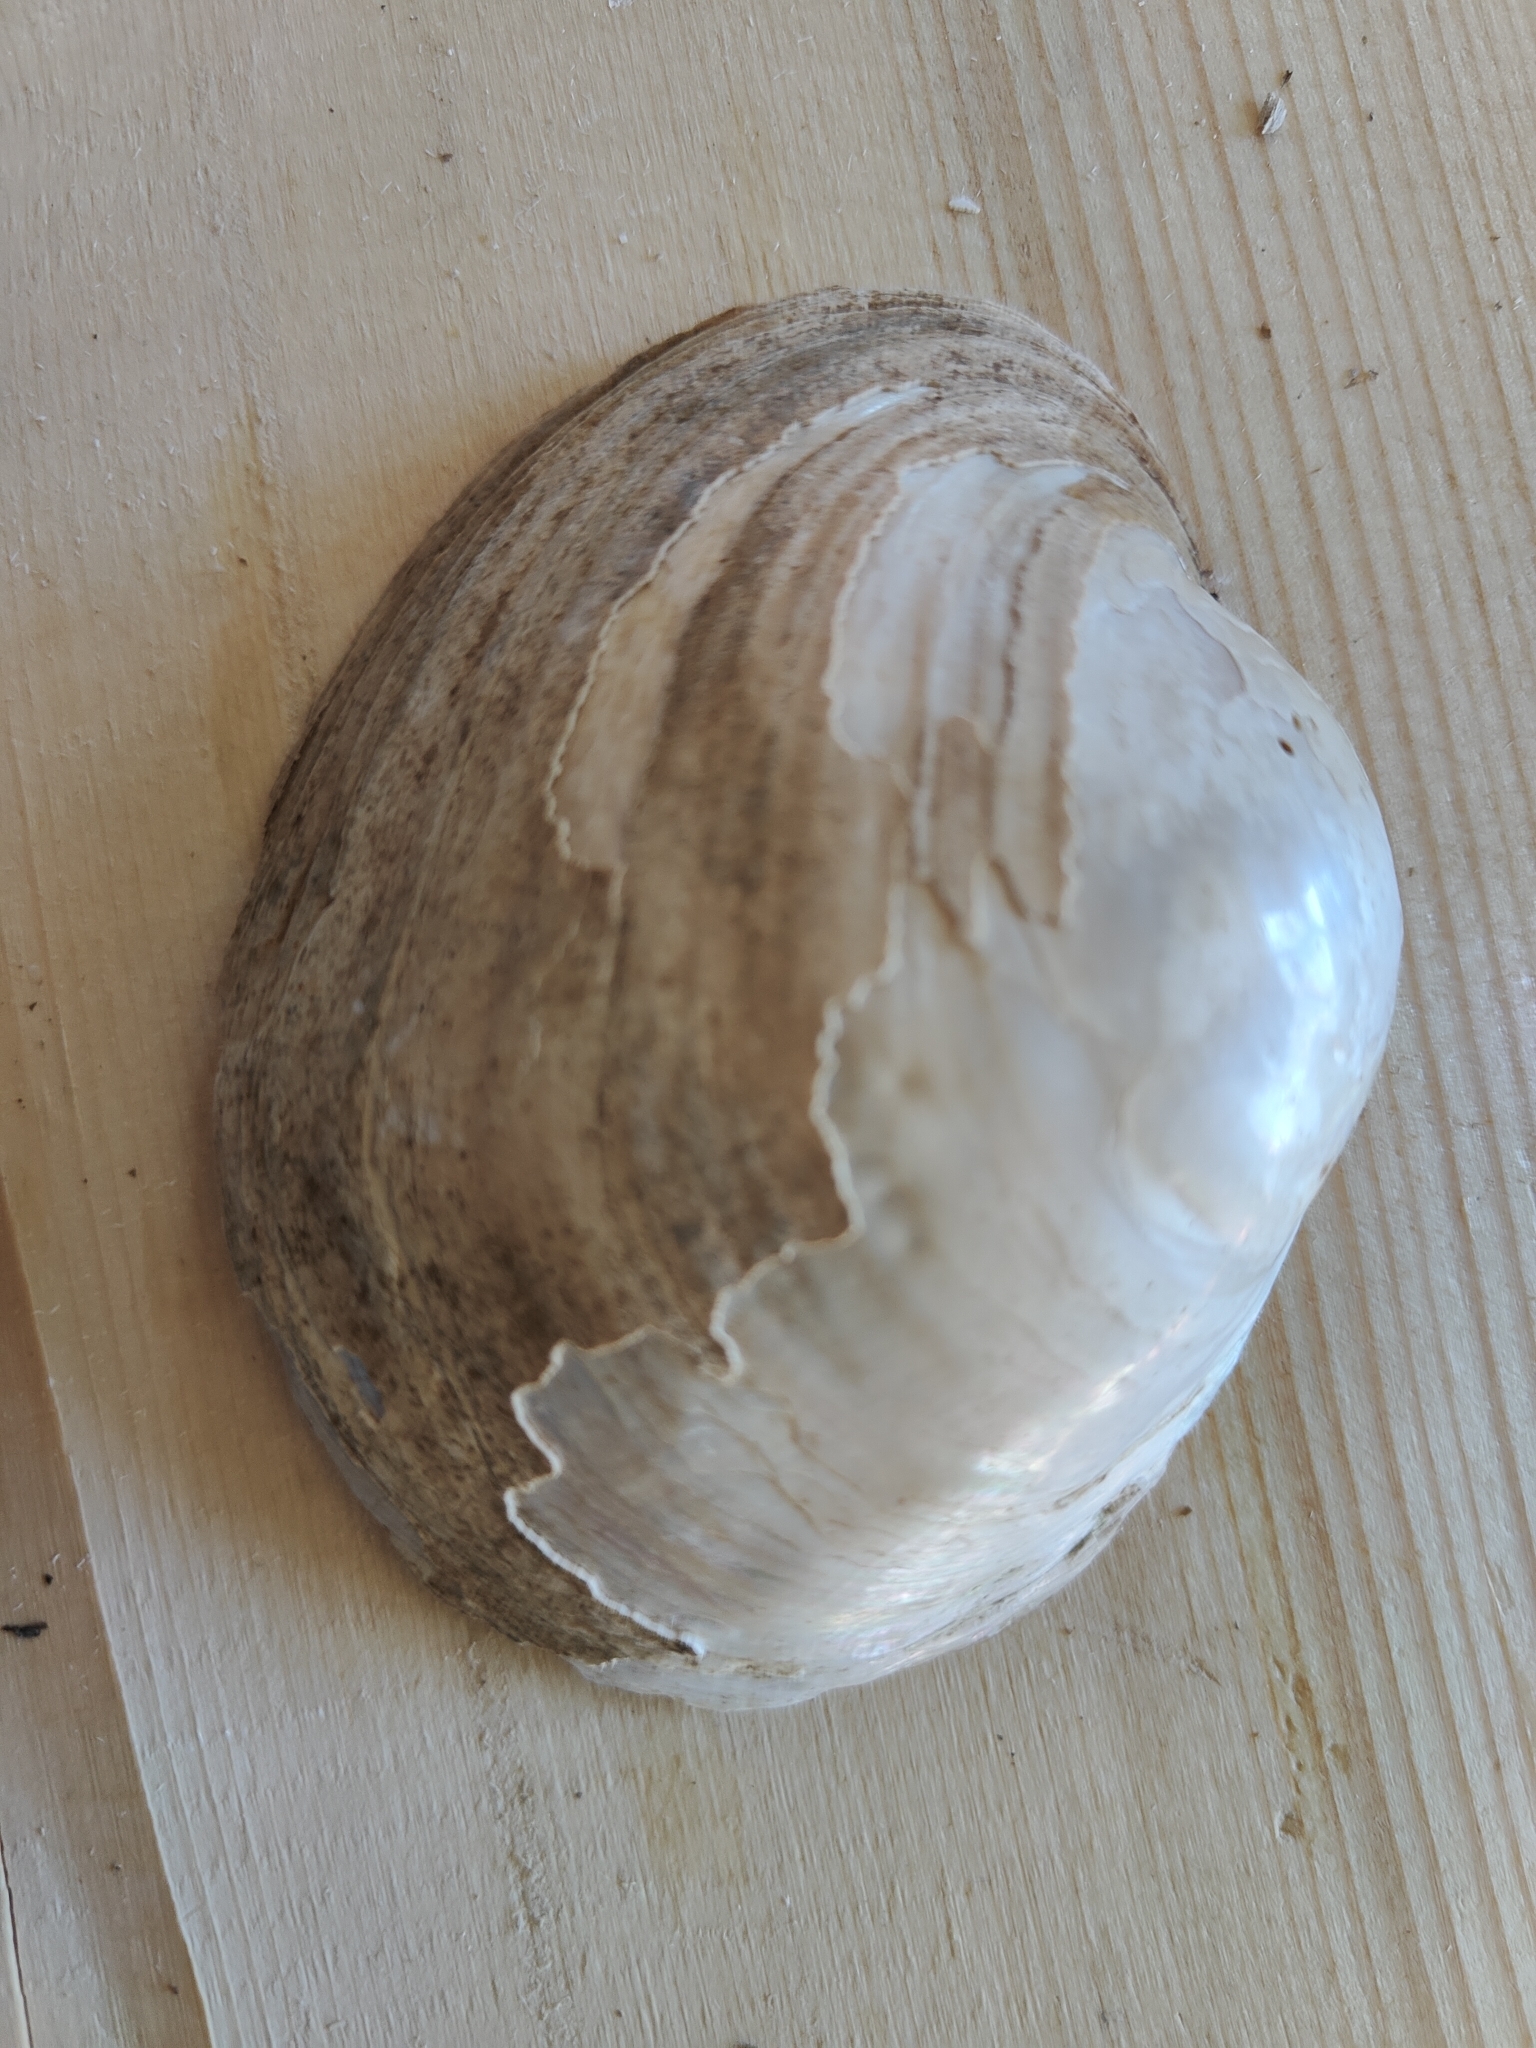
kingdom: Animalia
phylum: Mollusca
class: Bivalvia
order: Unionida
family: Unionidae
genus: Lampsilis
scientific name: Lampsilis cardium
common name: Plain pocketbook
